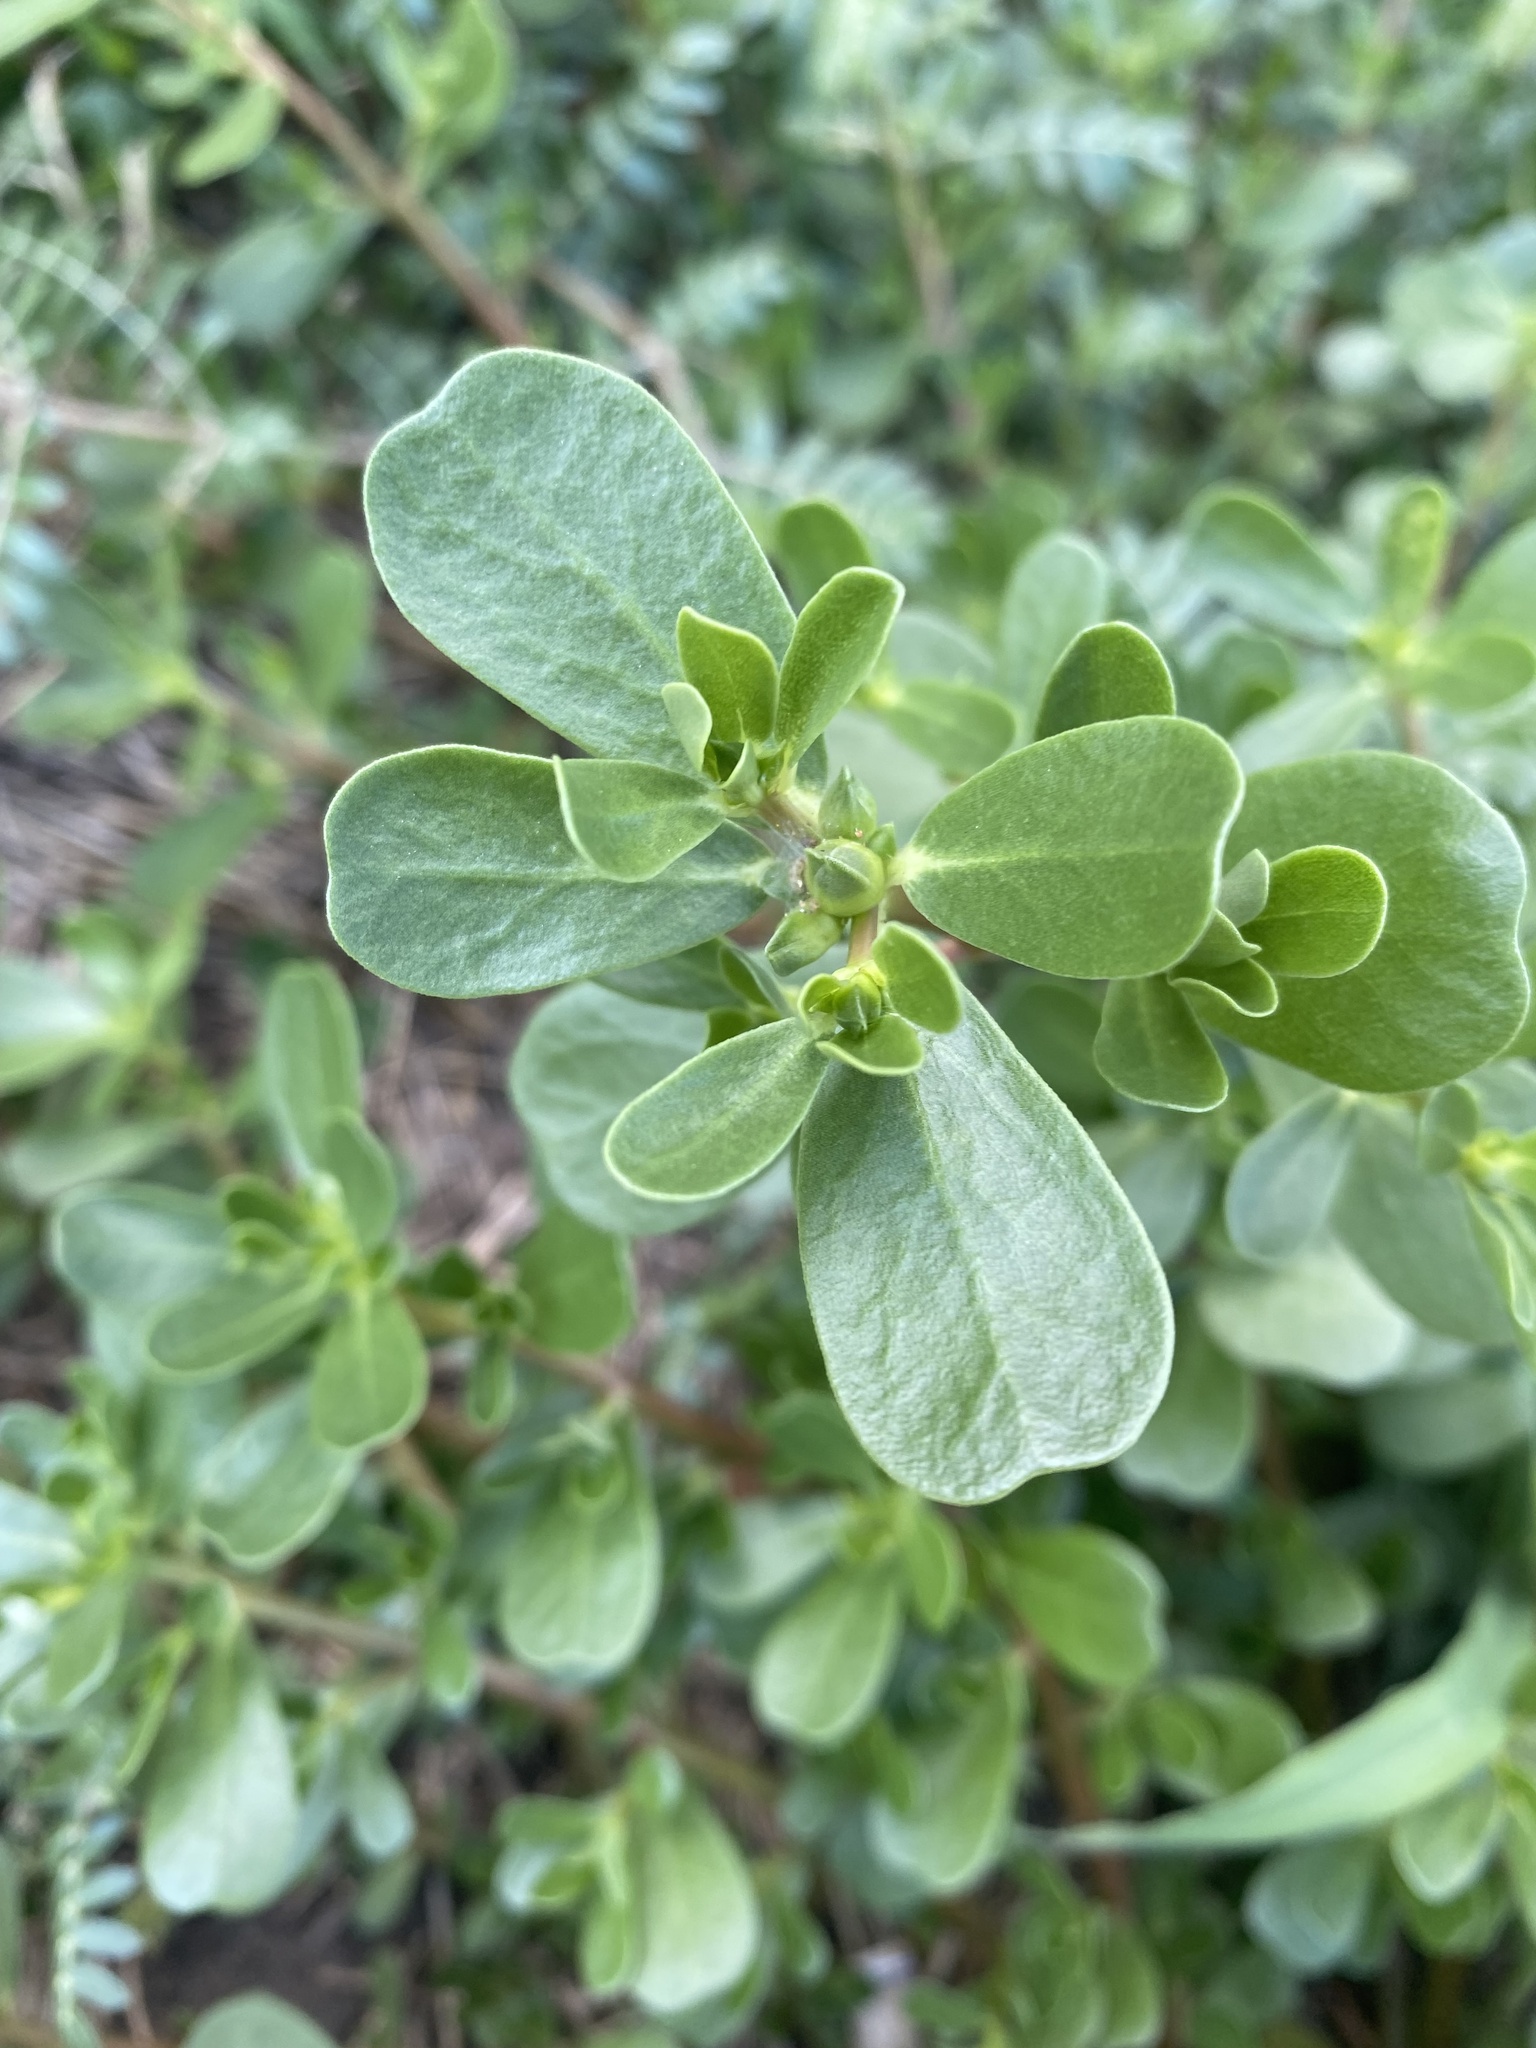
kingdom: Plantae
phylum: Tracheophyta
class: Magnoliopsida
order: Caryophyllales
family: Portulacaceae
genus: Portulaca
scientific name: Portulaca oleracea
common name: Common purslane
